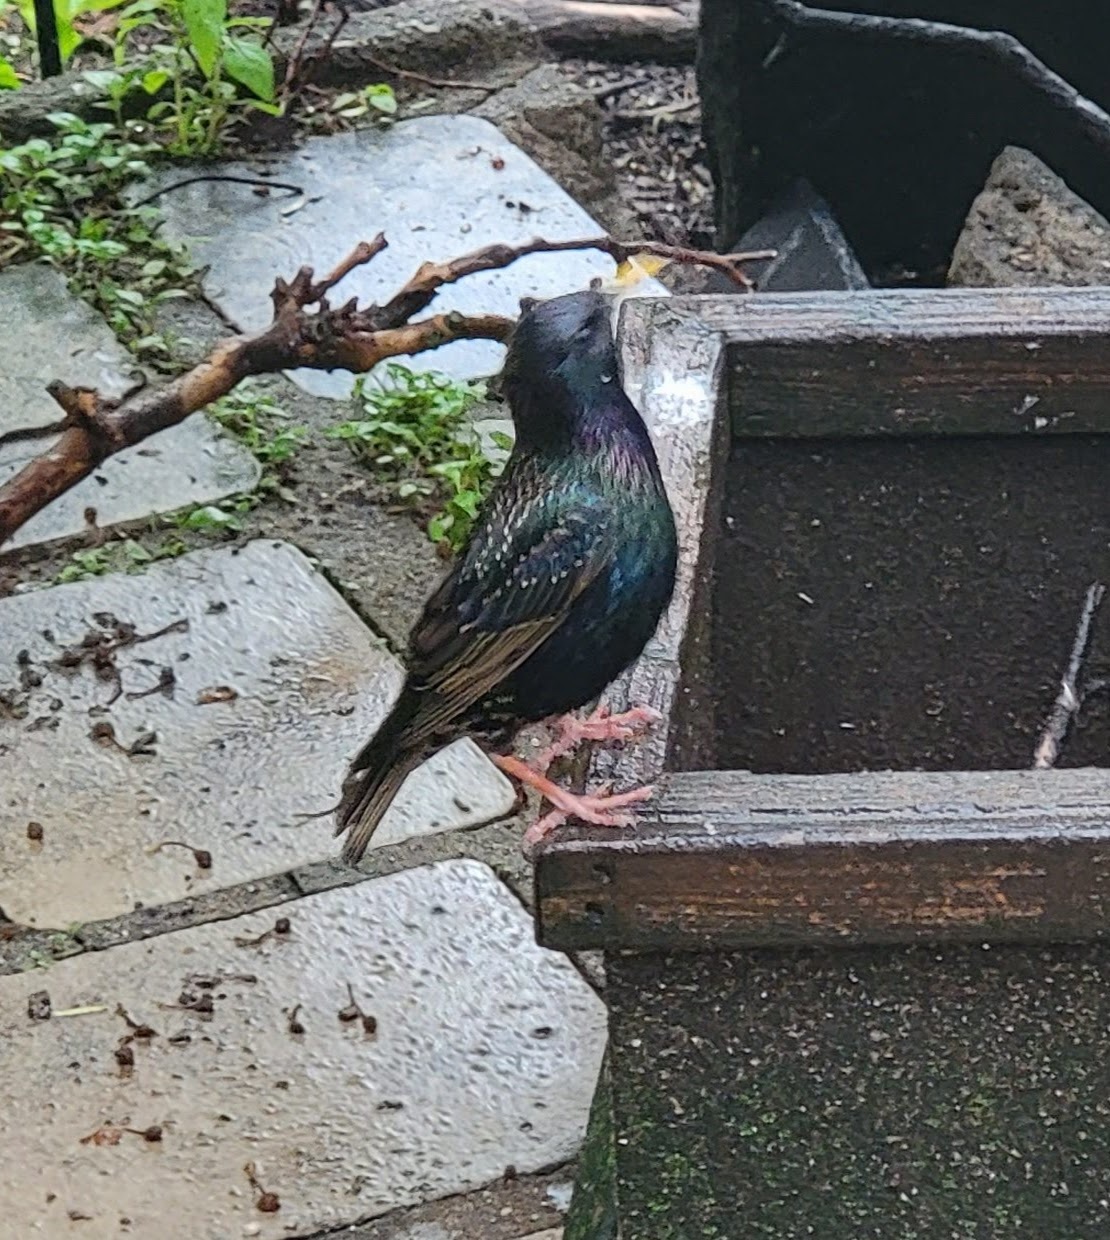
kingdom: Animalia
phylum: Chordata
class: Aves
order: Passeriformes
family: Sturnidae
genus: Sturnus
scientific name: Sturnus vulgaris
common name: Common starling
